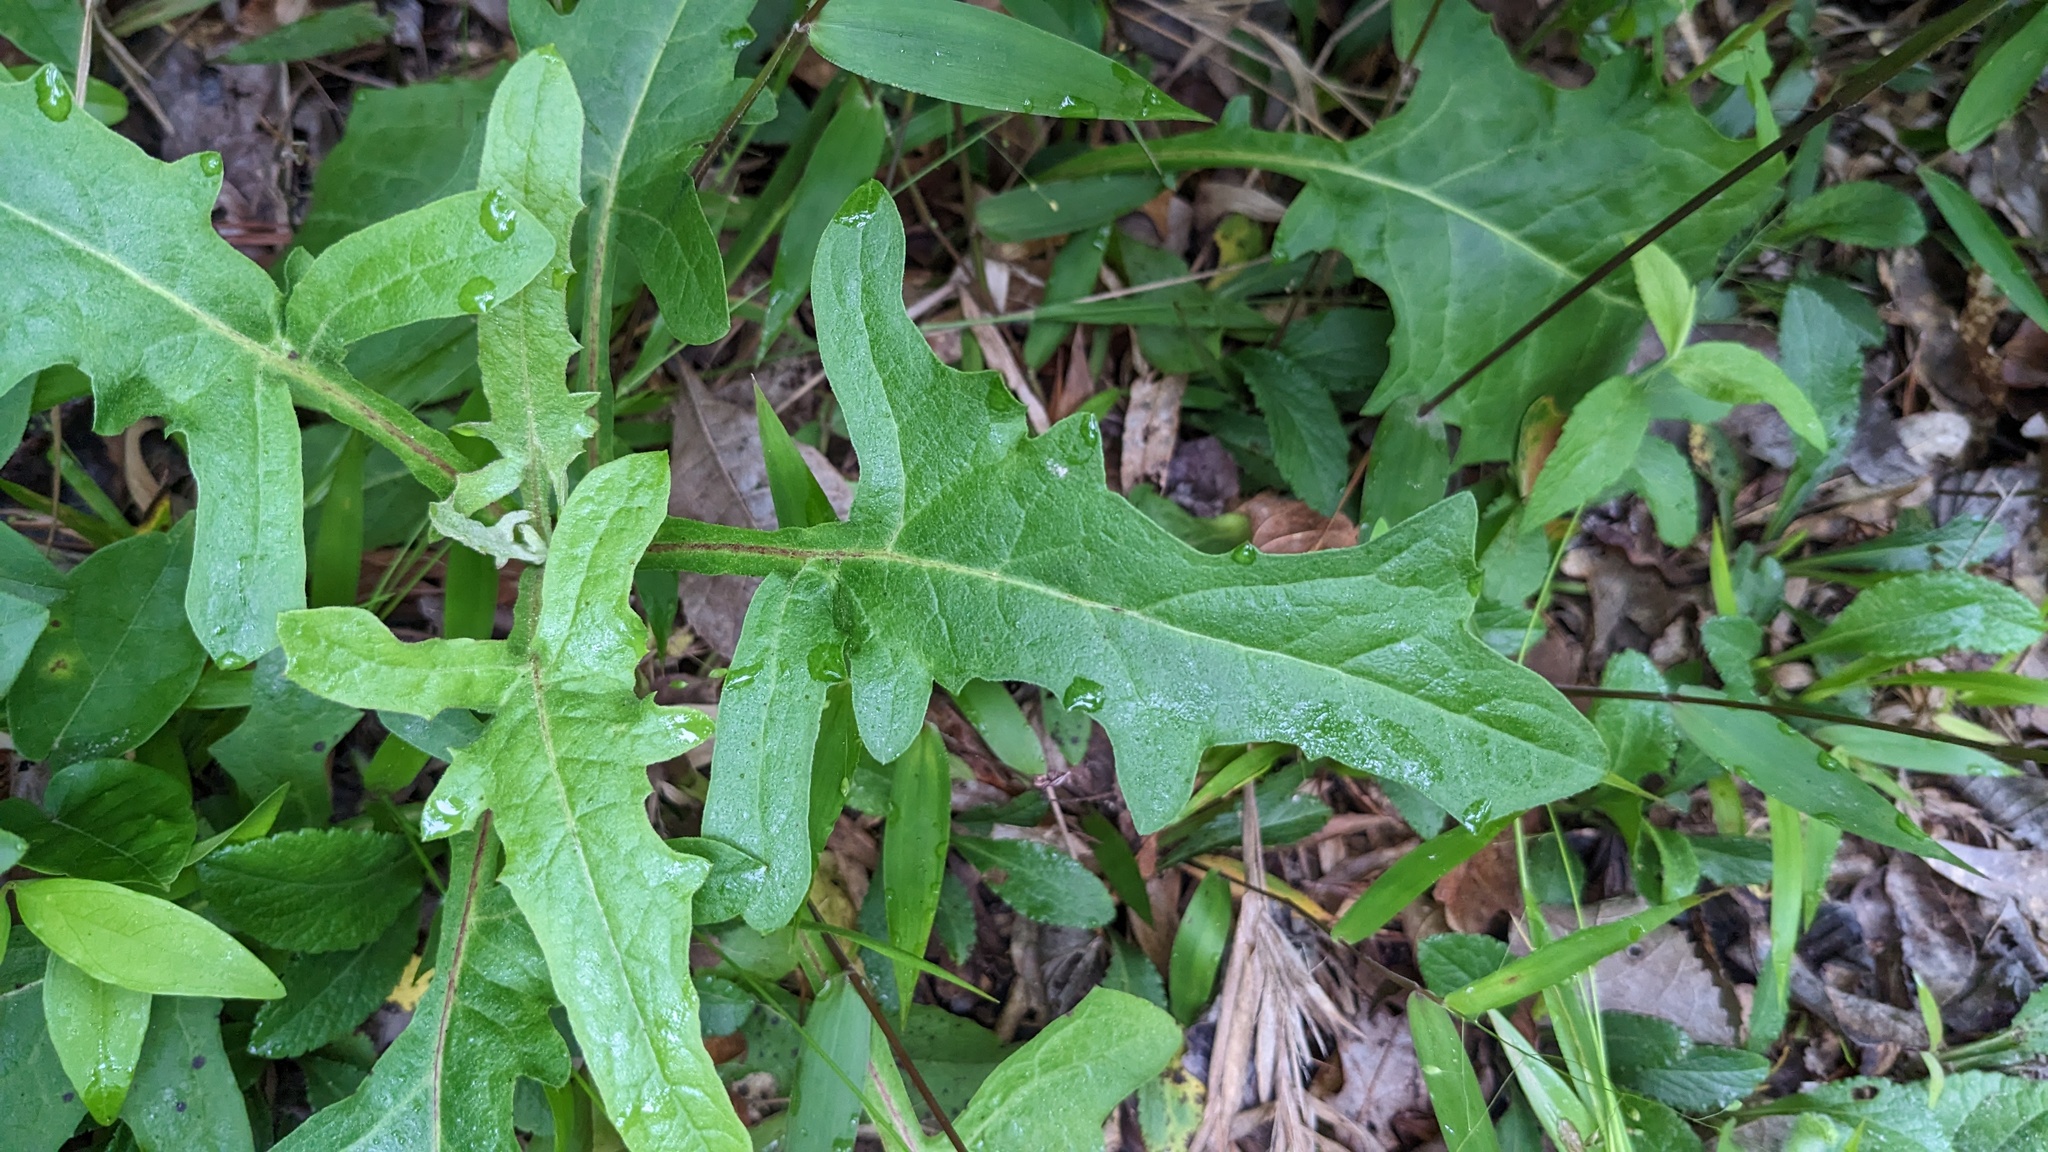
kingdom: Plantae
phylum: Tracheophyta
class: Magnoliopsida
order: Asterales
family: Asteraceae
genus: Nabalus
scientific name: Nabalus barbata
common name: Barbed rattlesnakeroot
